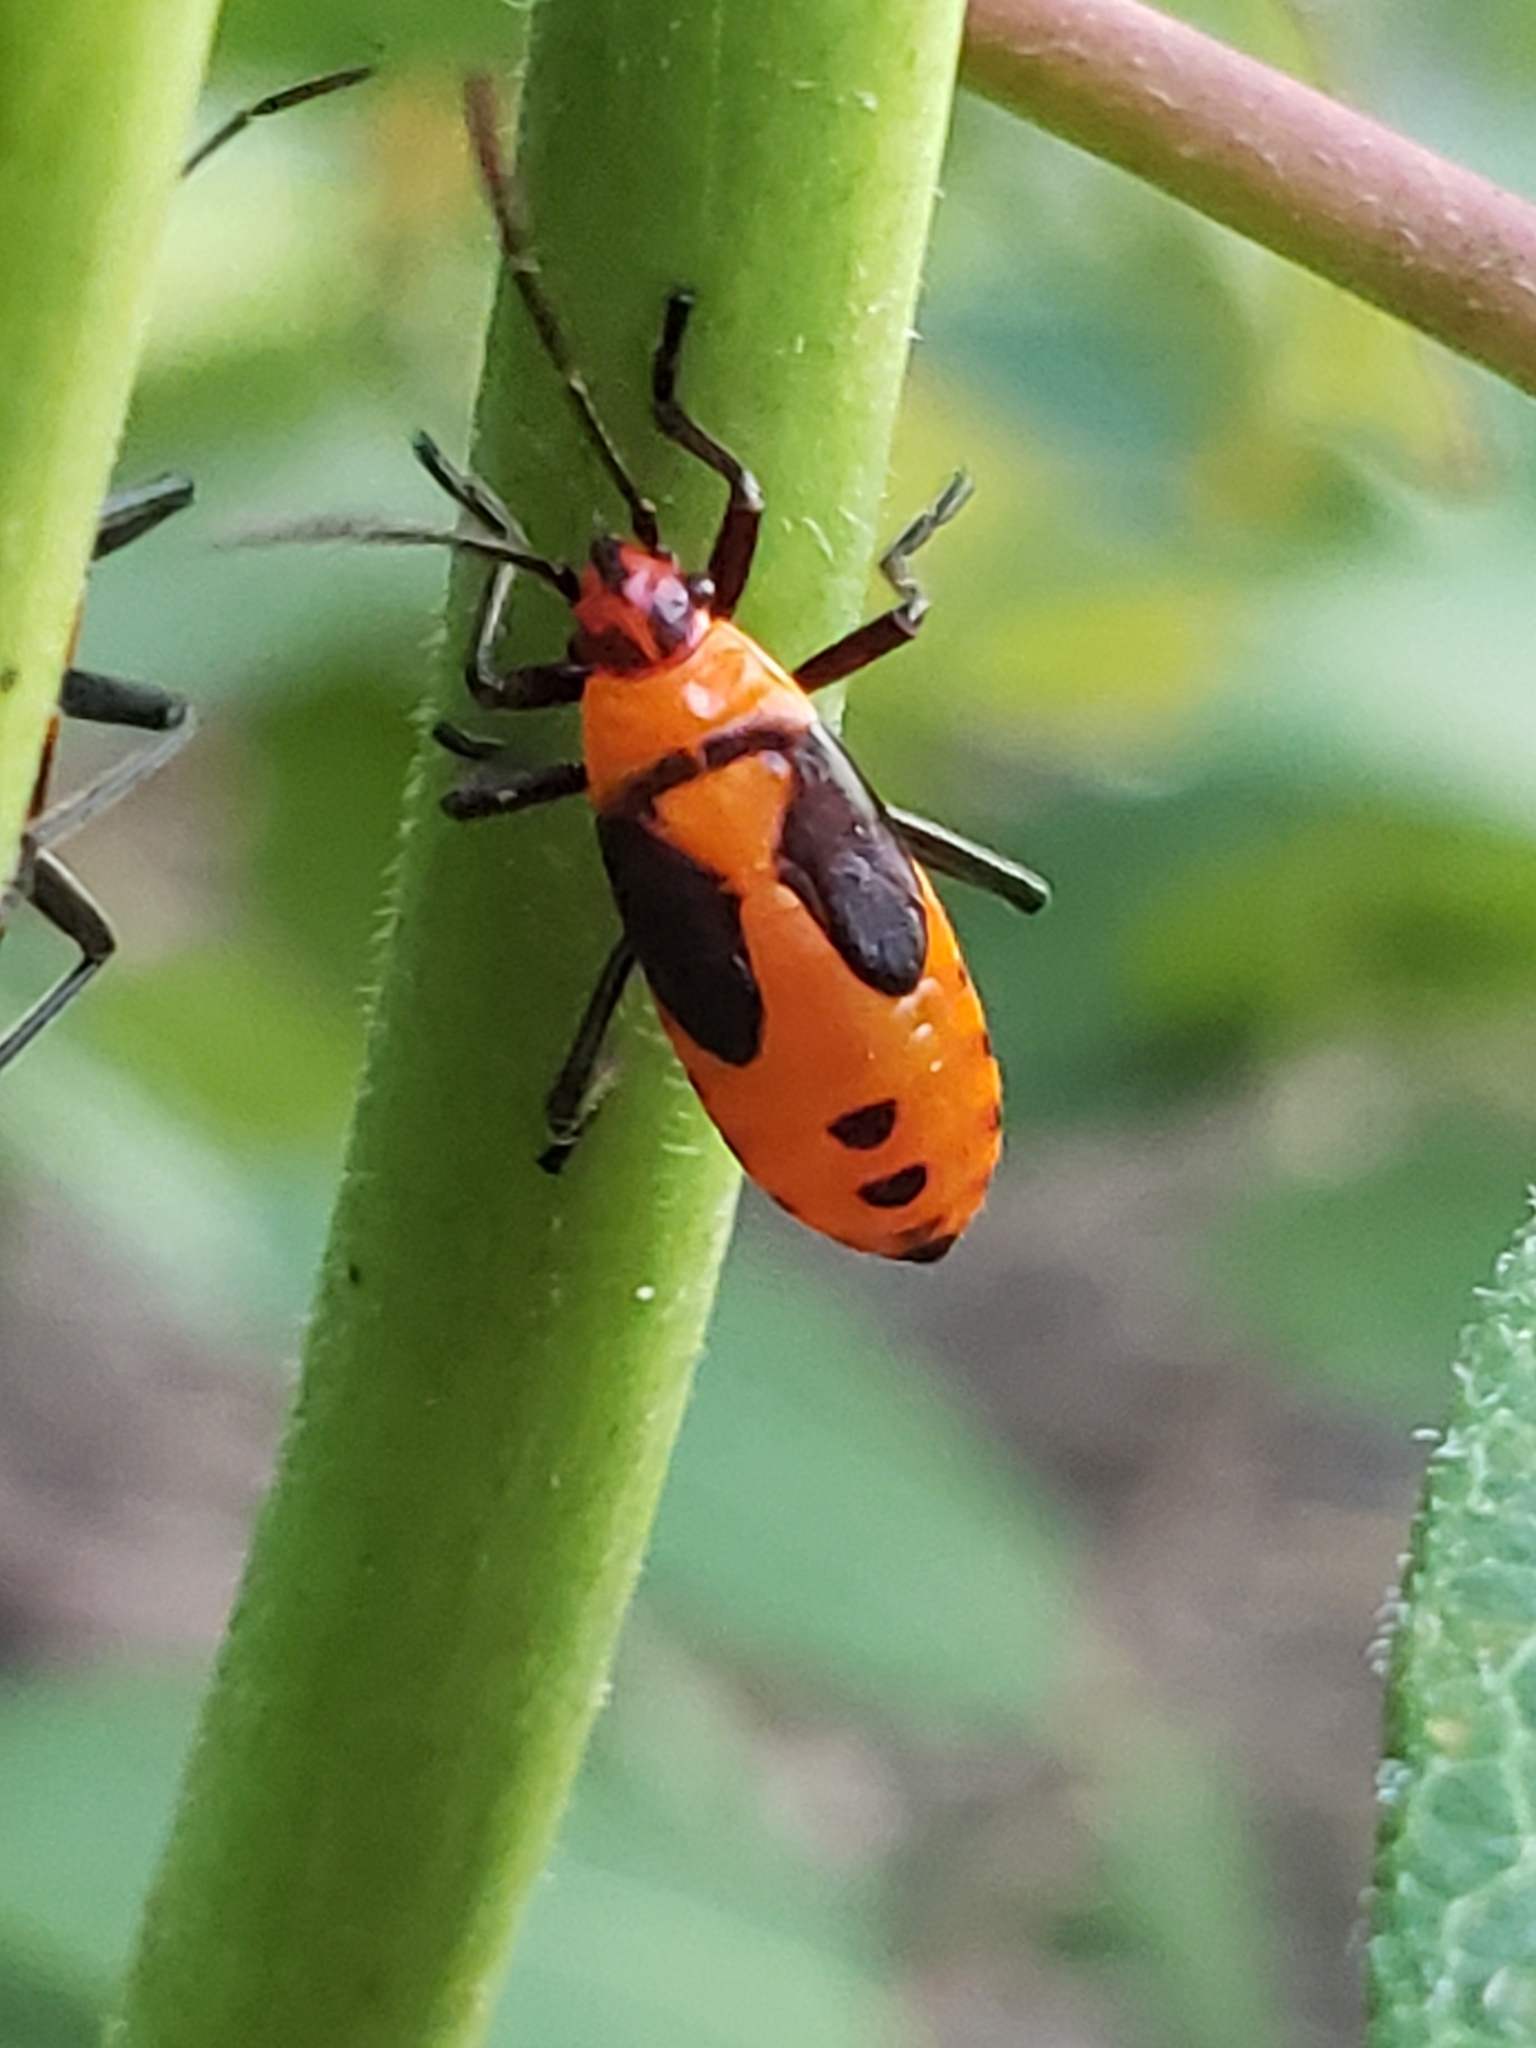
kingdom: Animalia
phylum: Arthropoda
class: Insecta
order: Hemiptera
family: Lygaeidae
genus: Oncopeltus
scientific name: Oncopeltus fasciatus
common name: Large milkweed bug
